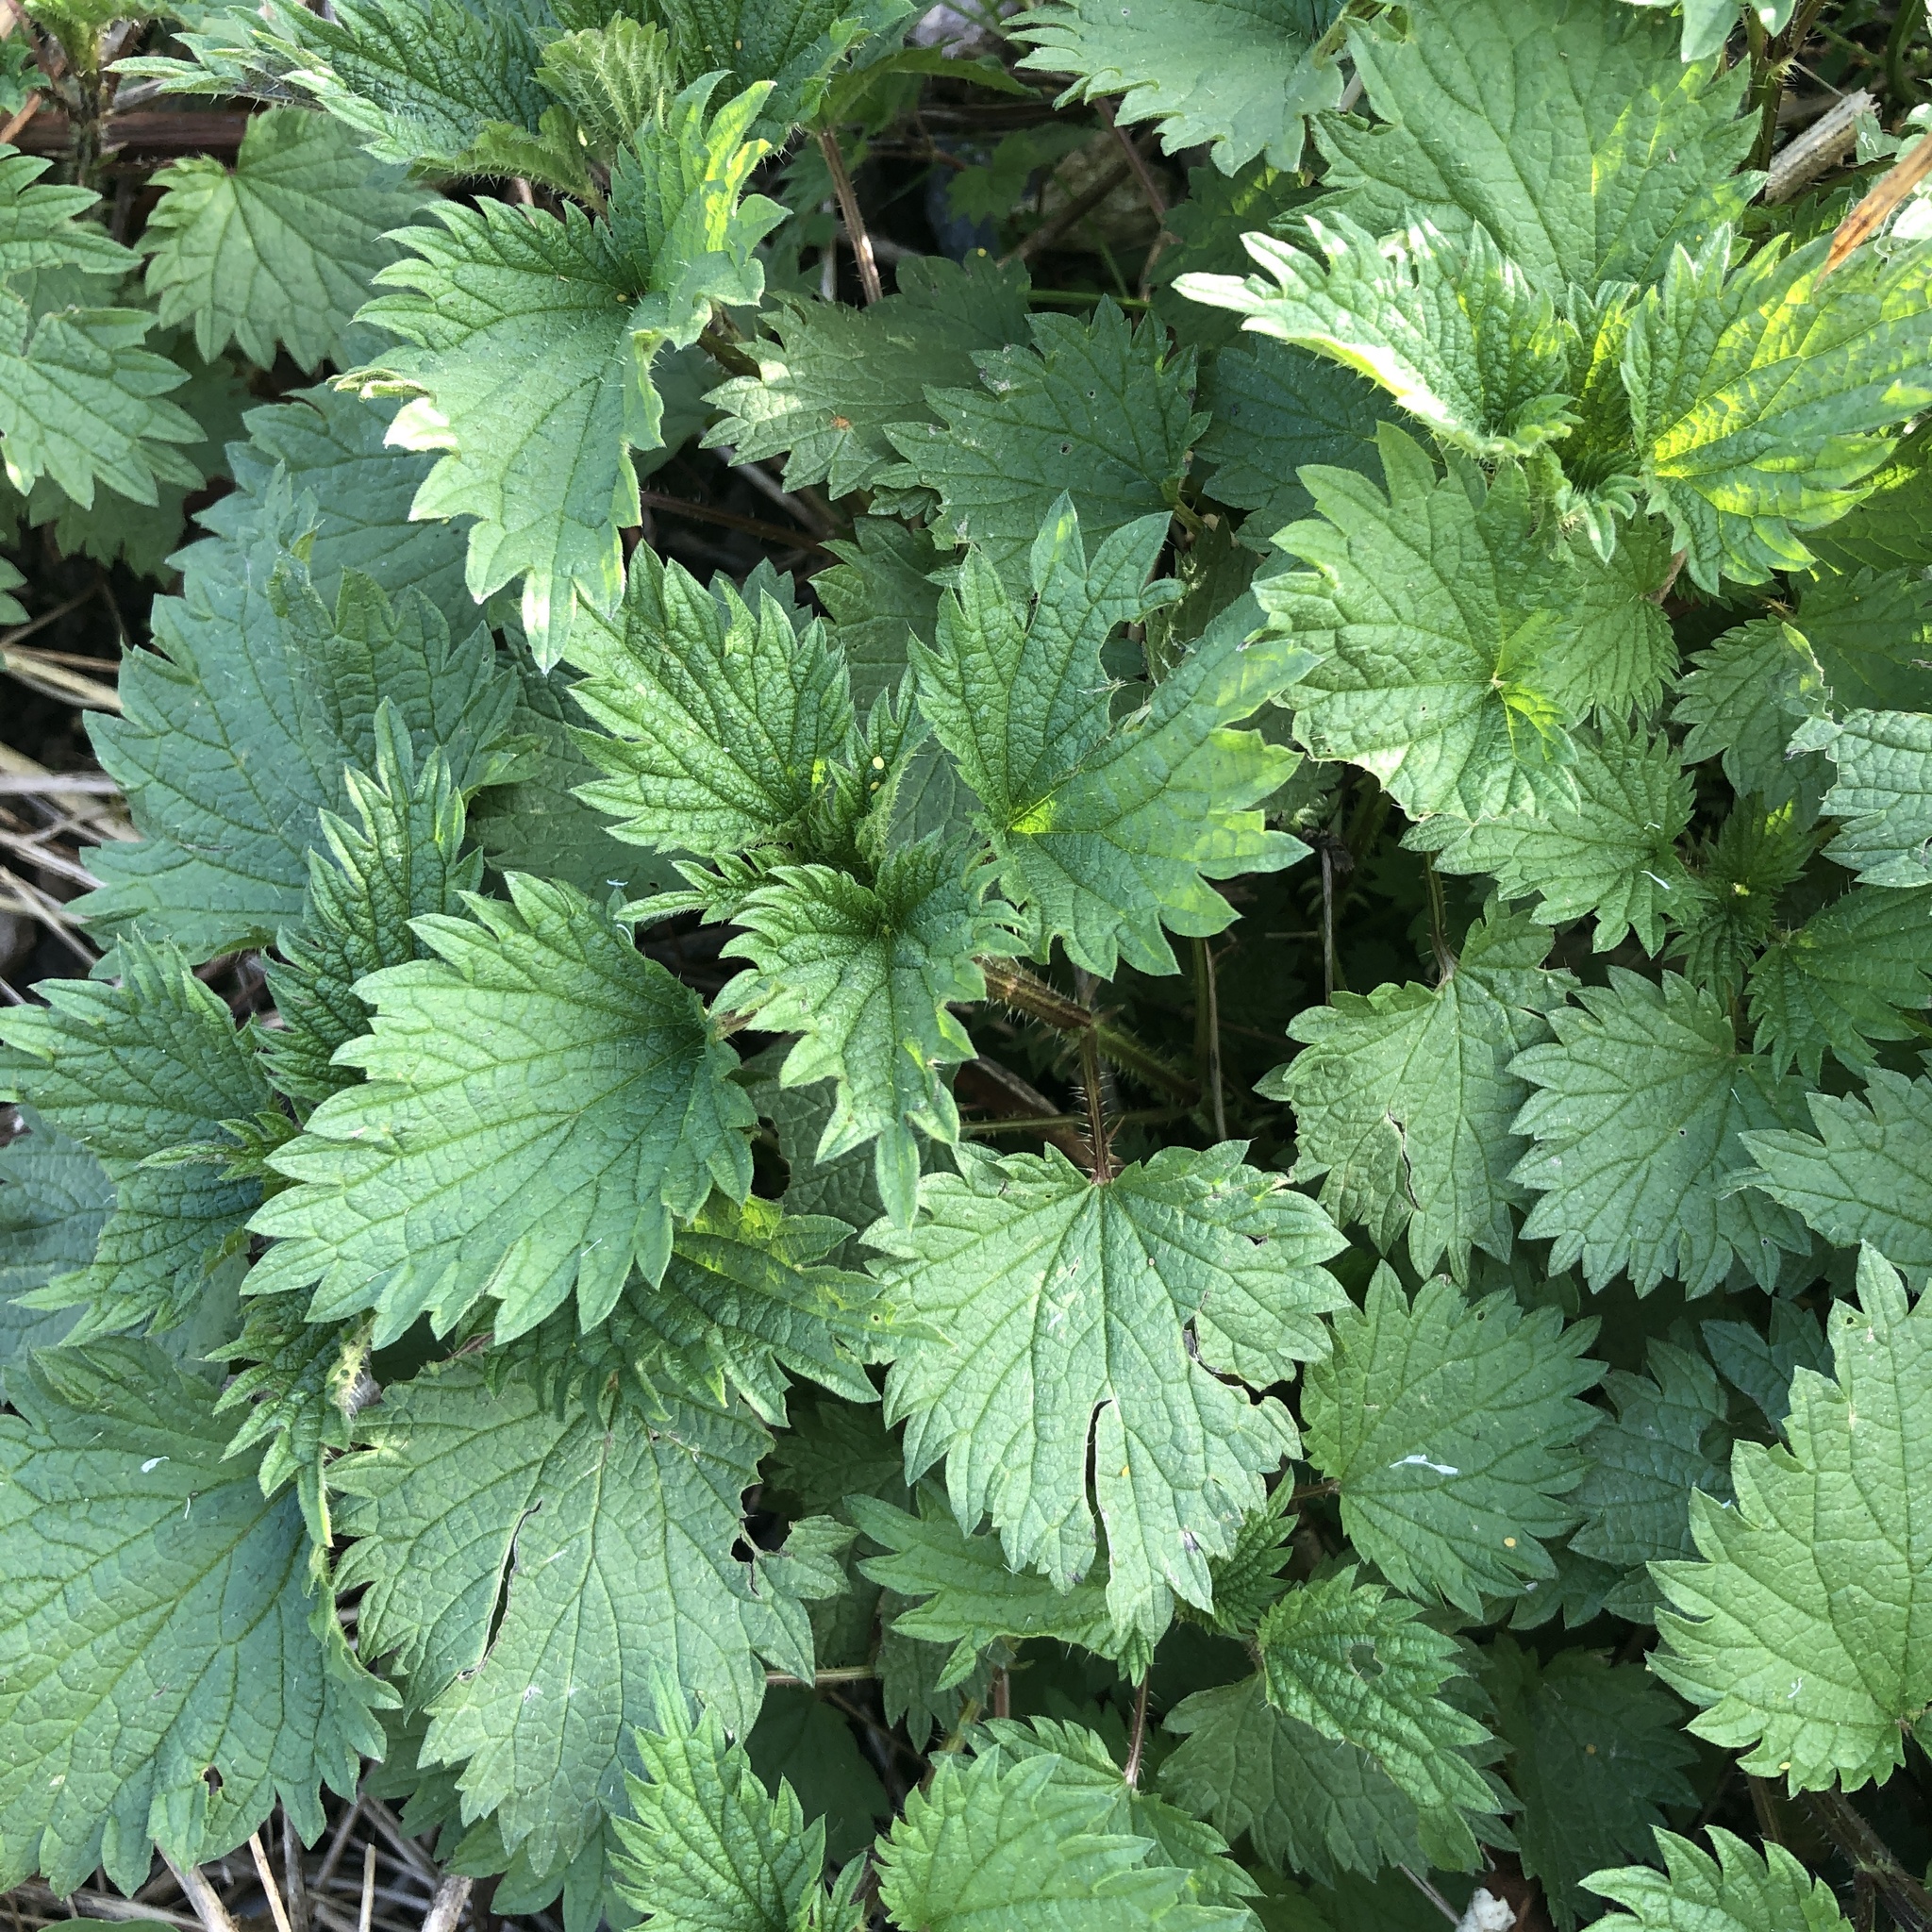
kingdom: Plantae
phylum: Tracheophyta
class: Magnoliopsida
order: Rosales
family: Urticaceae
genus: Urtica
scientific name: Urtica dioica
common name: Common nettle
